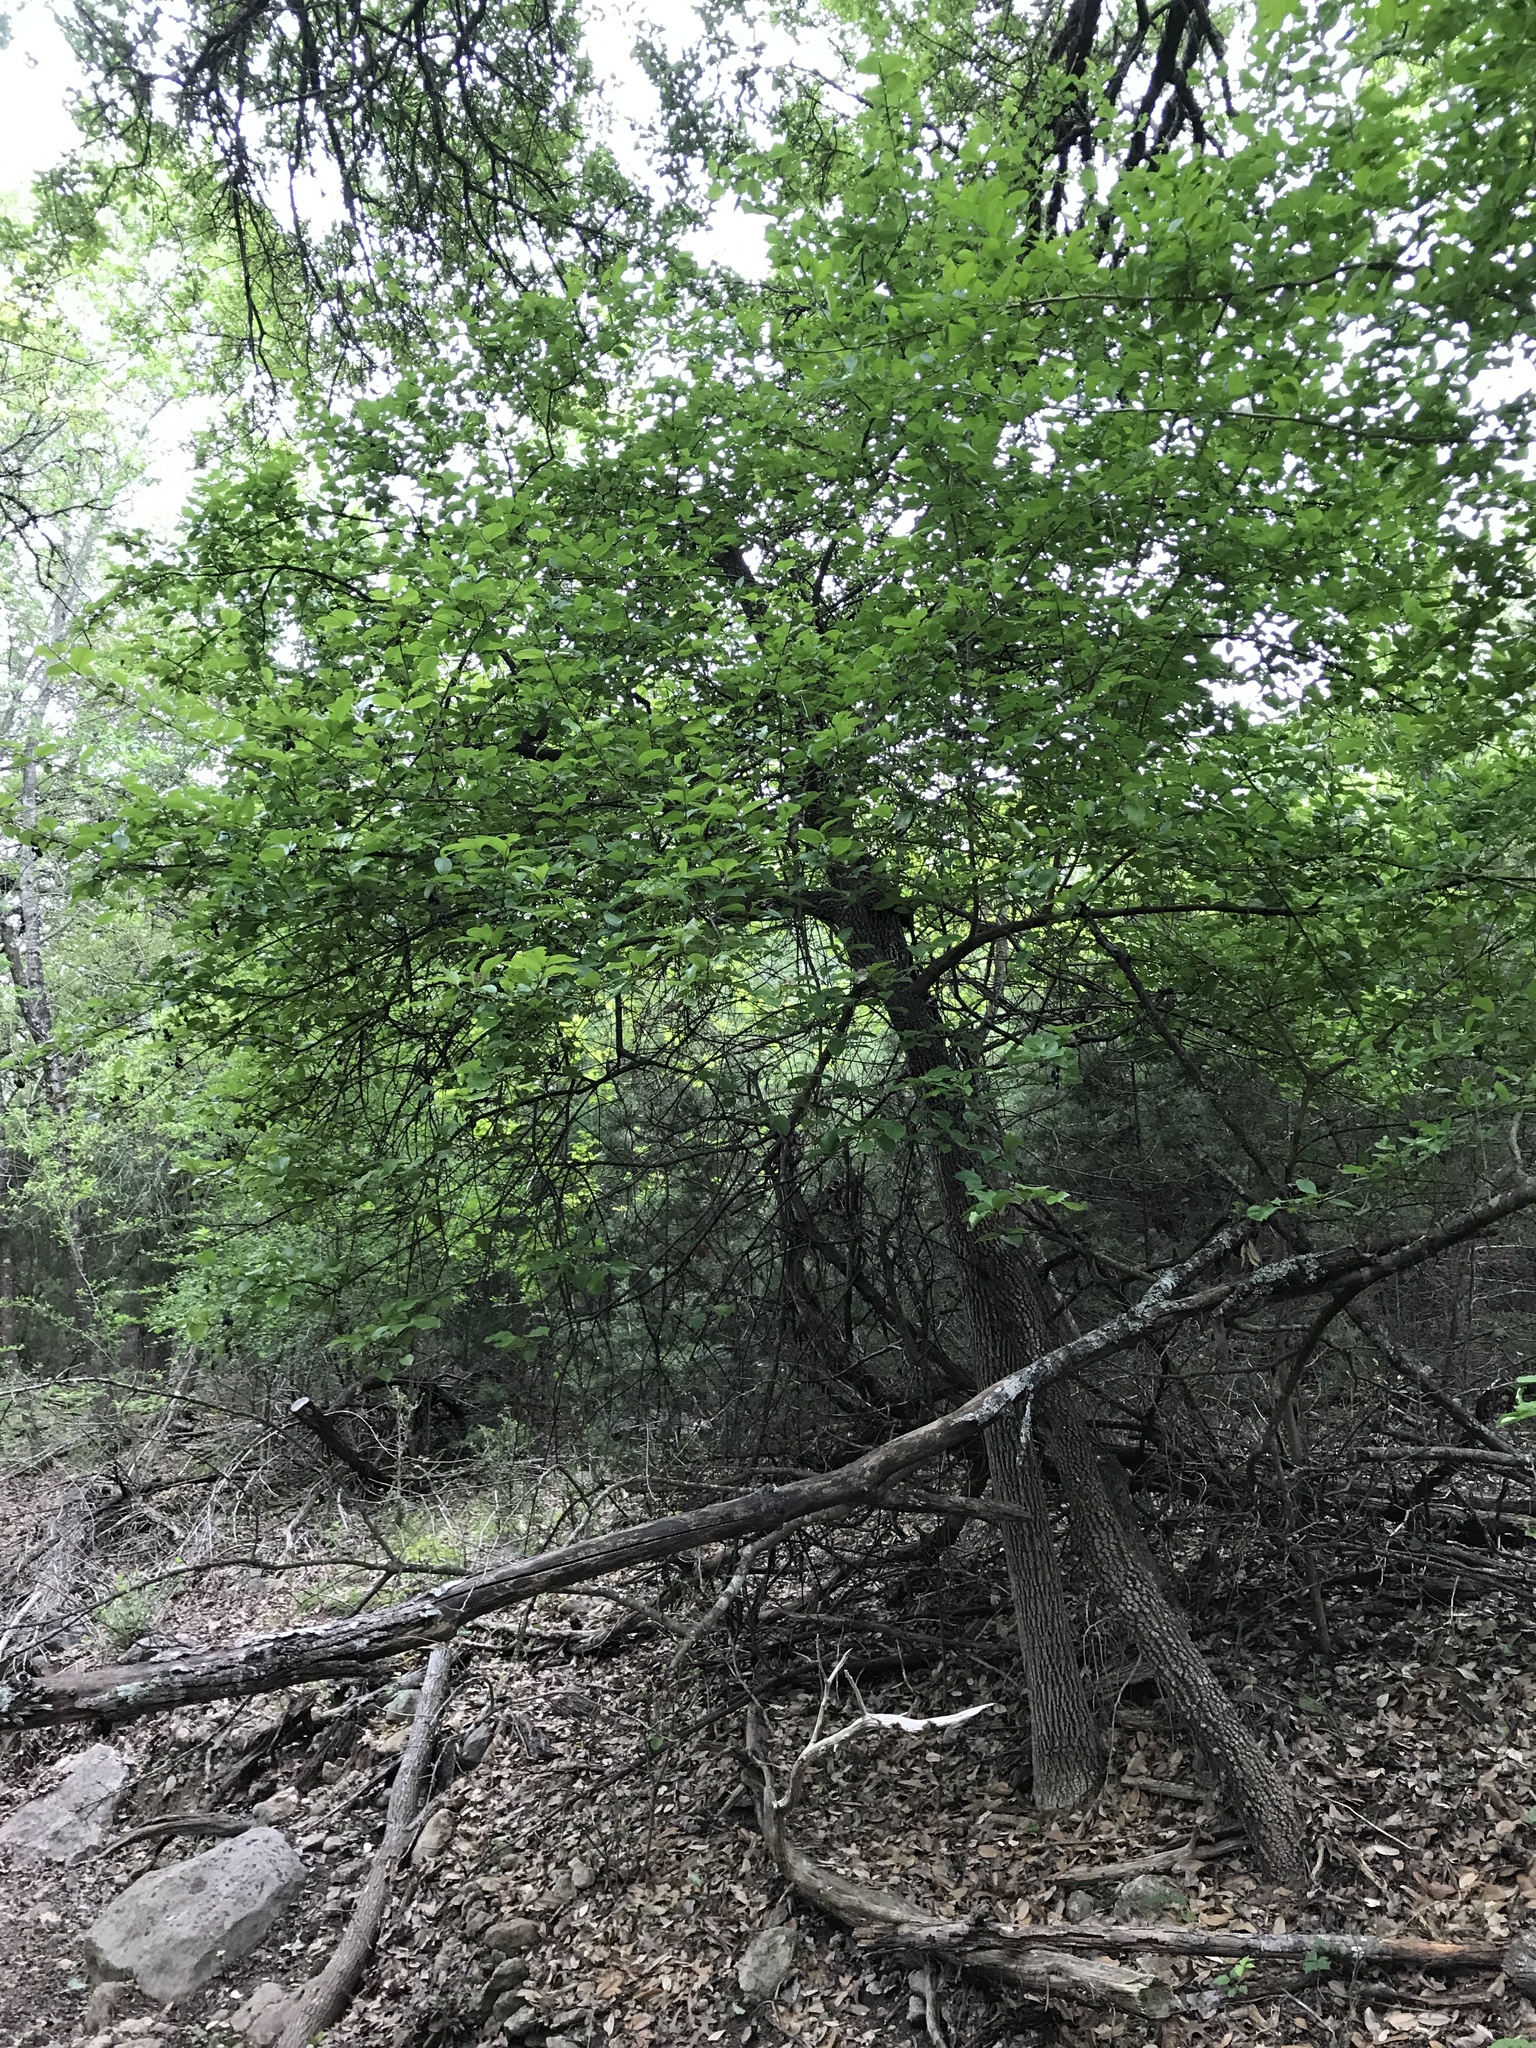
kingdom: Plantae
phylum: Tracheophyta
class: Magnoliopsida
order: Dipsacales
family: Viburnaceae
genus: Viburnum
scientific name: Viburnum rufidulum
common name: Blue haw
